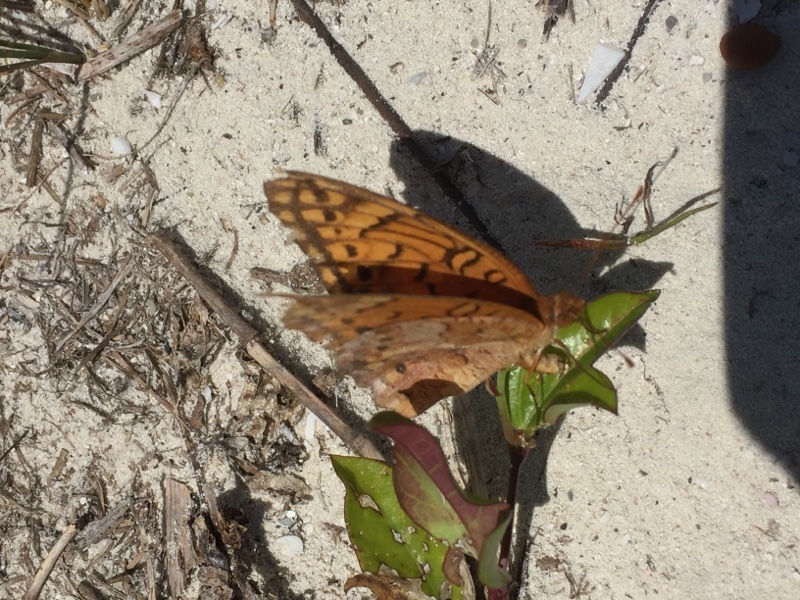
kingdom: Animalia
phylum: Arthropoda
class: Insecta
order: Lepidoptera
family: Nymphalidae
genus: Euptoieta
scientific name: Euptoieta hegesia
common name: Mexican fritillary
